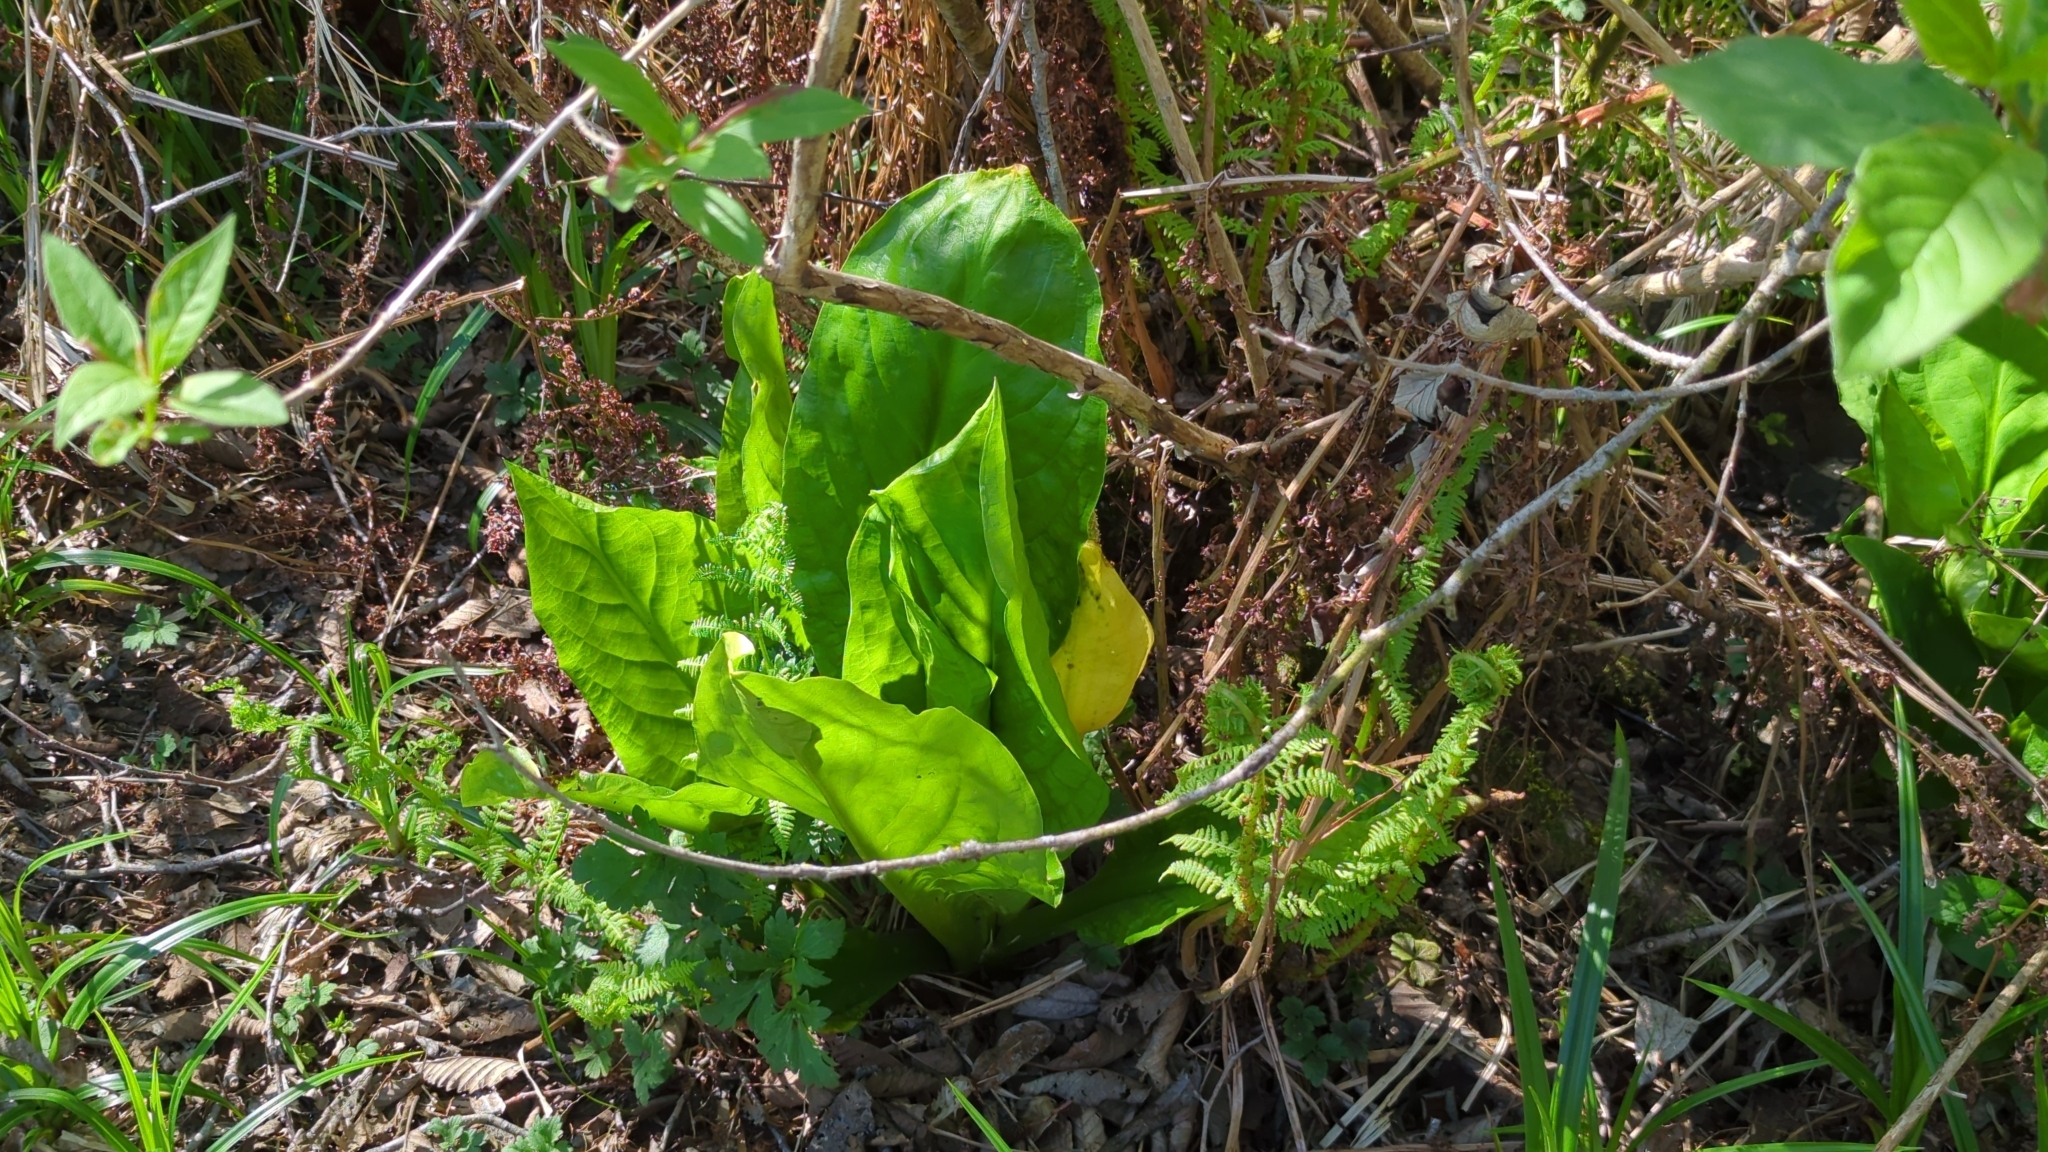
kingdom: Plantae
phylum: Tracheophyta
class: Liliopsida
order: Alismatales
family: Araceae
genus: Lysichiton
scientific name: Lysichiton americanus
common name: American skunk cabbage
